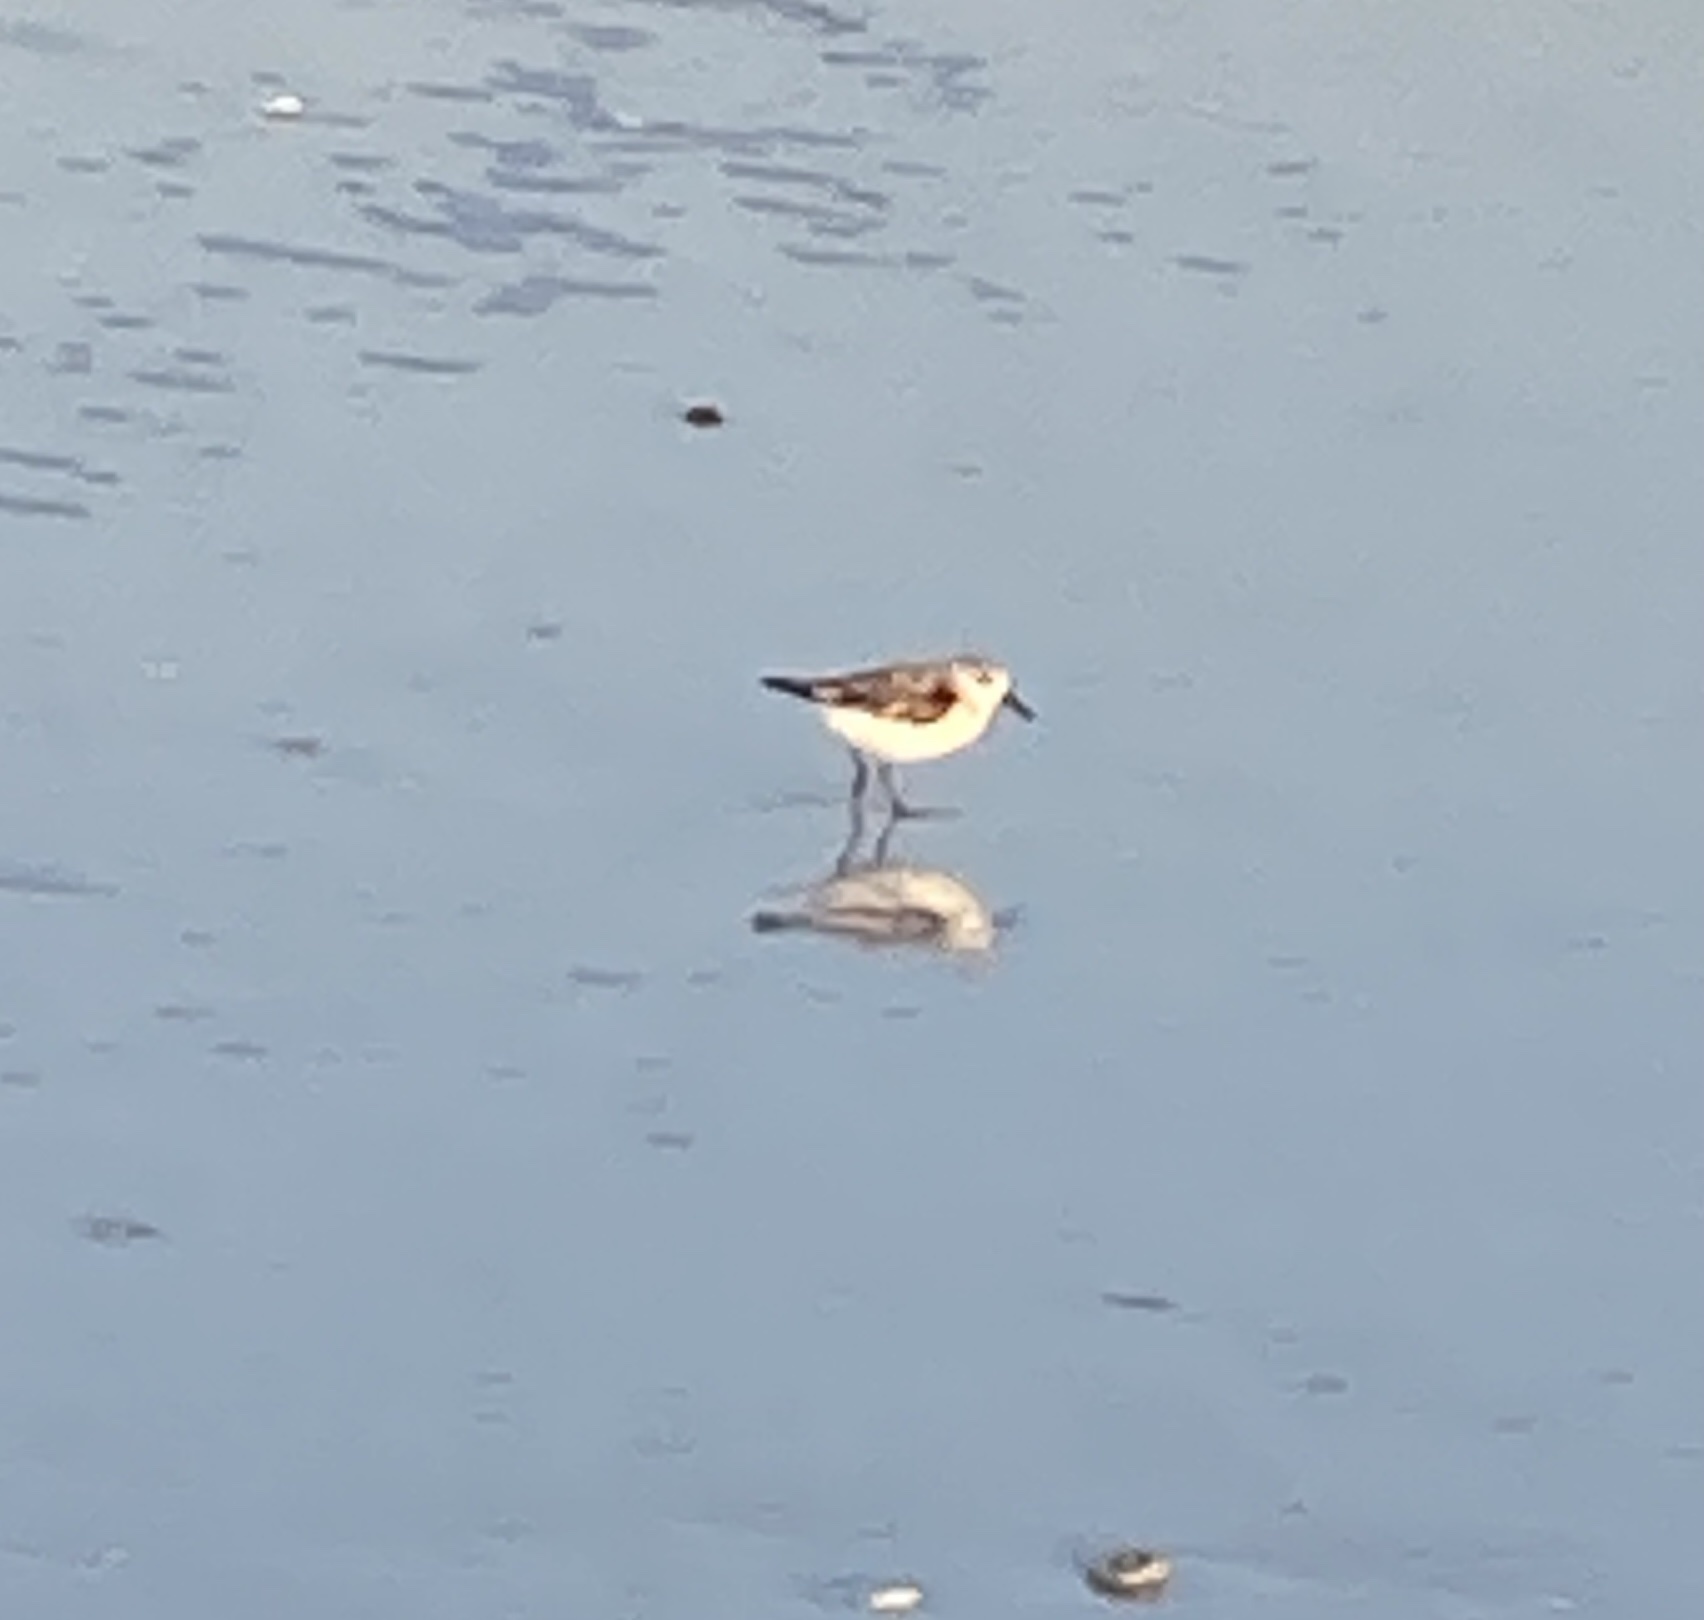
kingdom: Animalia
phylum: Chordata
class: Aves
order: Charadriiformes
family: Scolopacidae
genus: Calidris
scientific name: Calidris alba
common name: Sanderling
